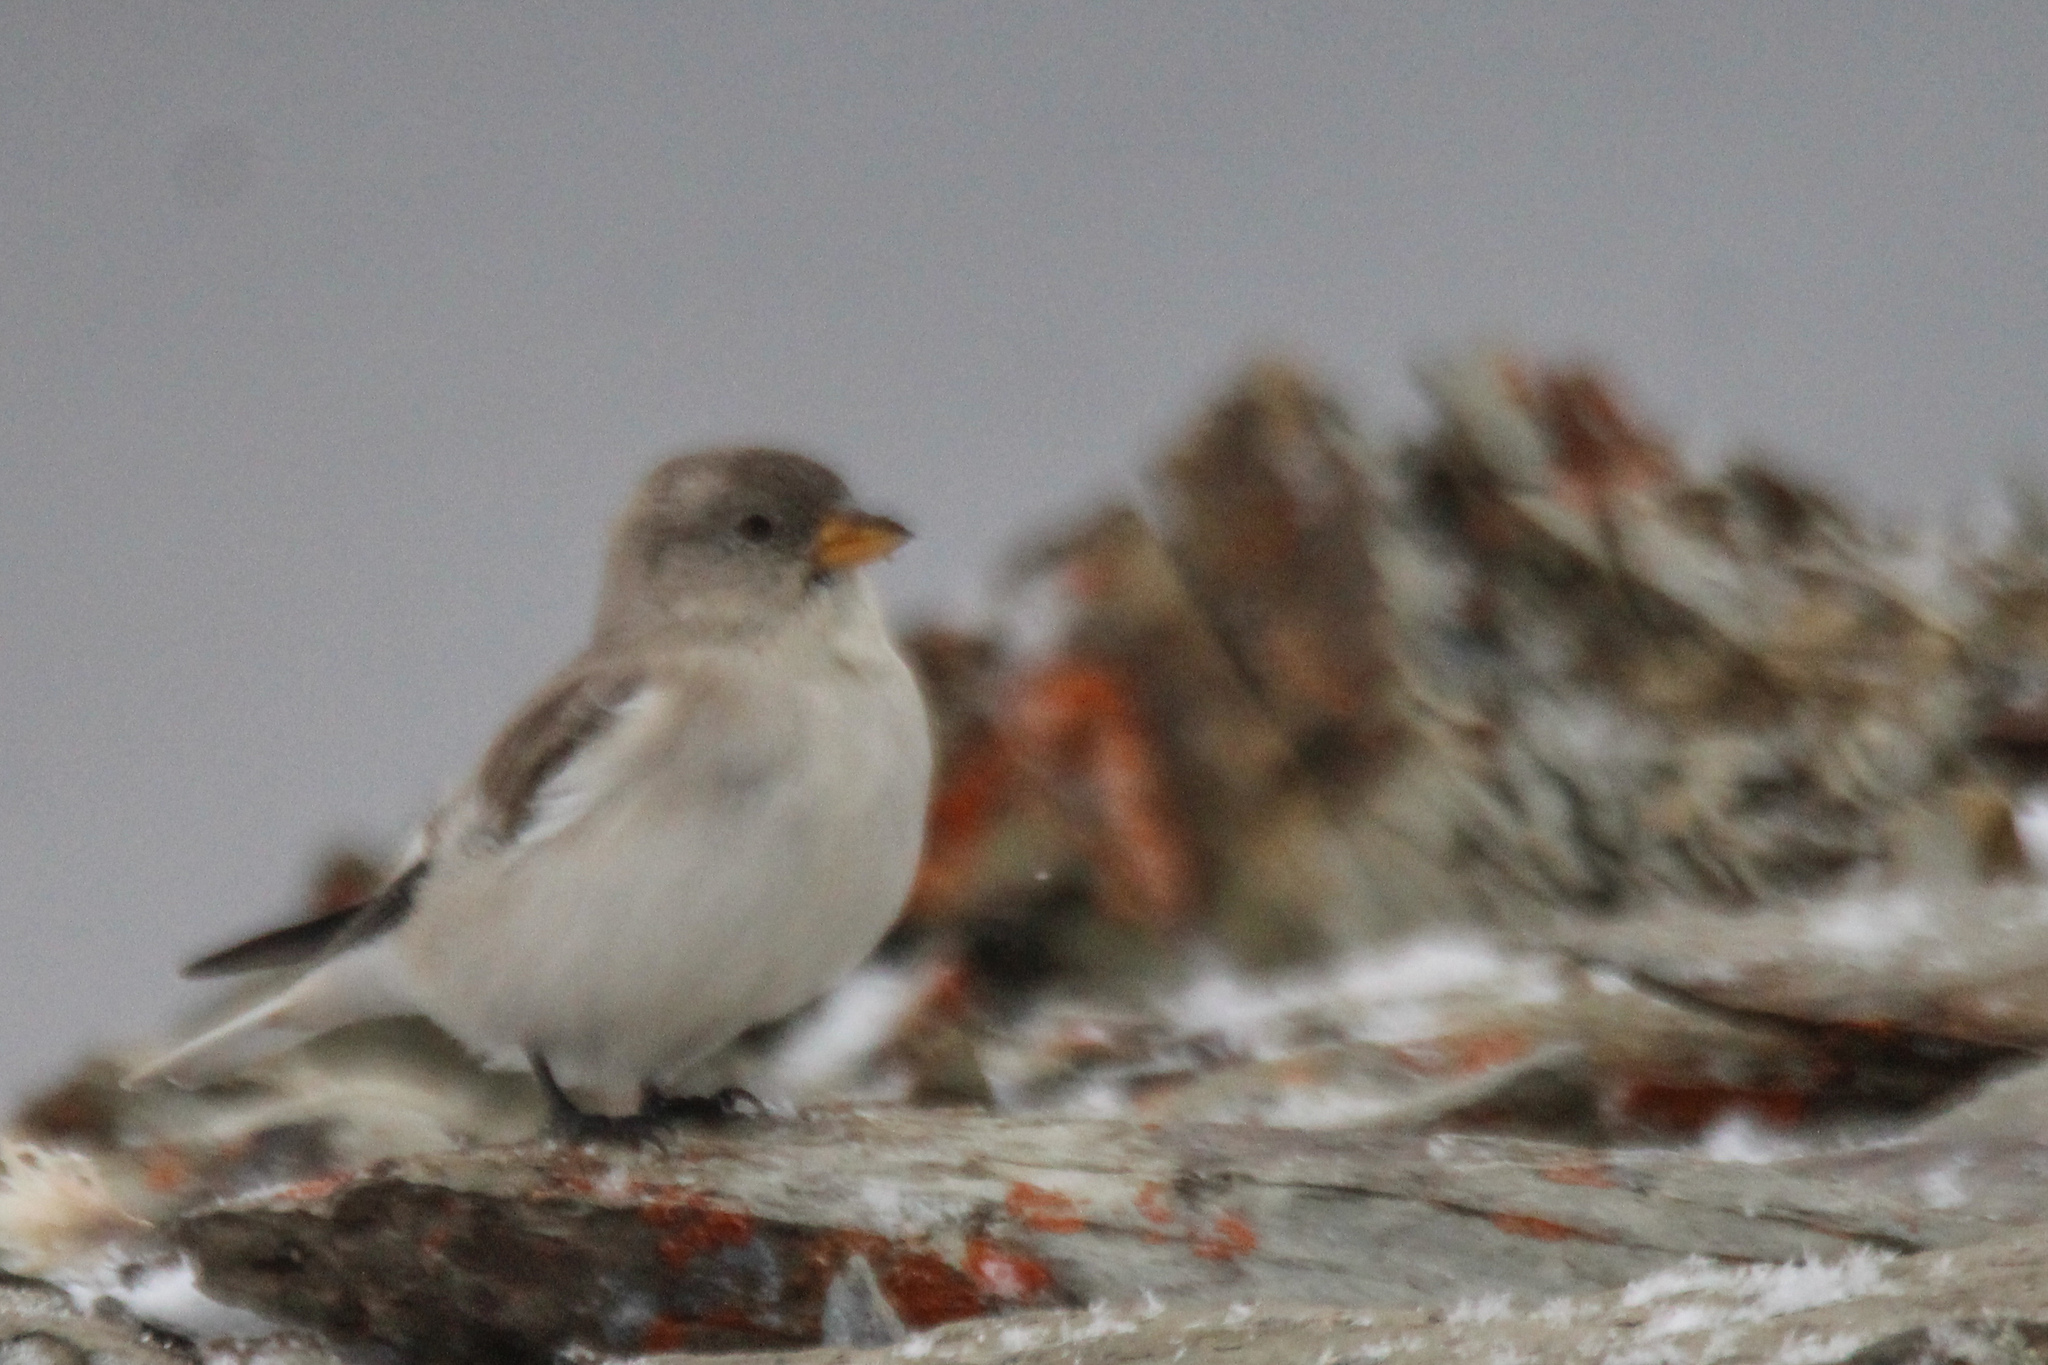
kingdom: Animalia
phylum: Chordata
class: Aves
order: Passeriformes
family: Passeridae
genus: Montifringilla
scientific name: Montifringilla nivalis
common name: White-winged snowfinch
